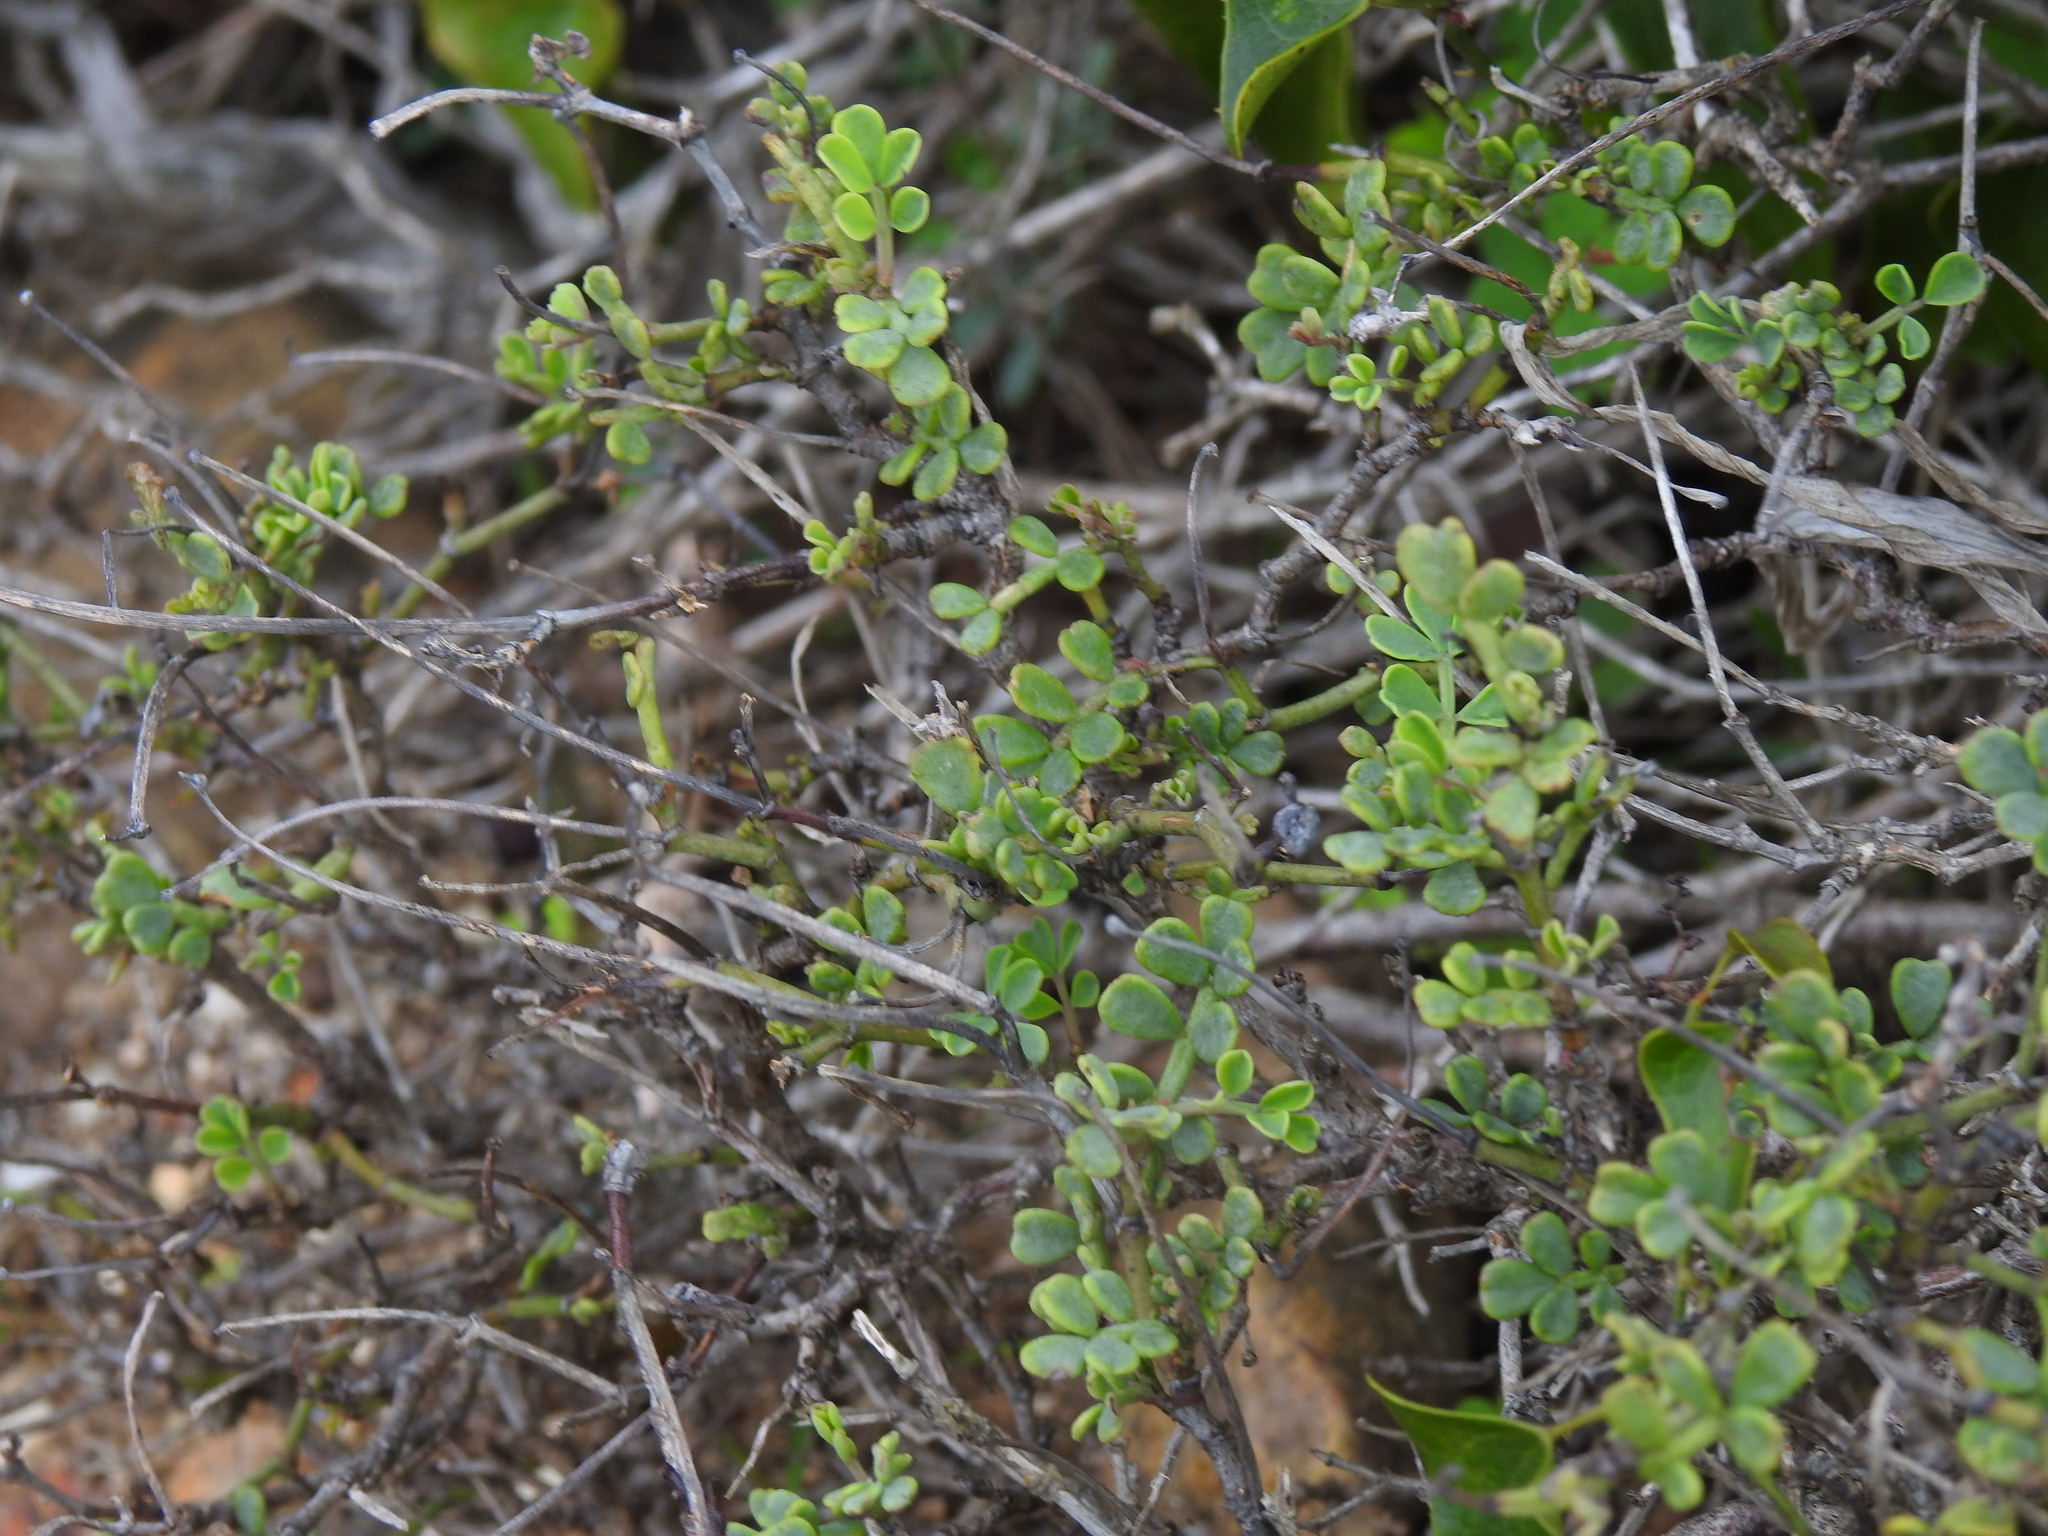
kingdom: Plantae
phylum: Tracheophyta
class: Magnoliopsida
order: Fabales
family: Fabaceae
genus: Coronilla
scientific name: Coronilla valentina
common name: Shrubby scorpion-vetch
